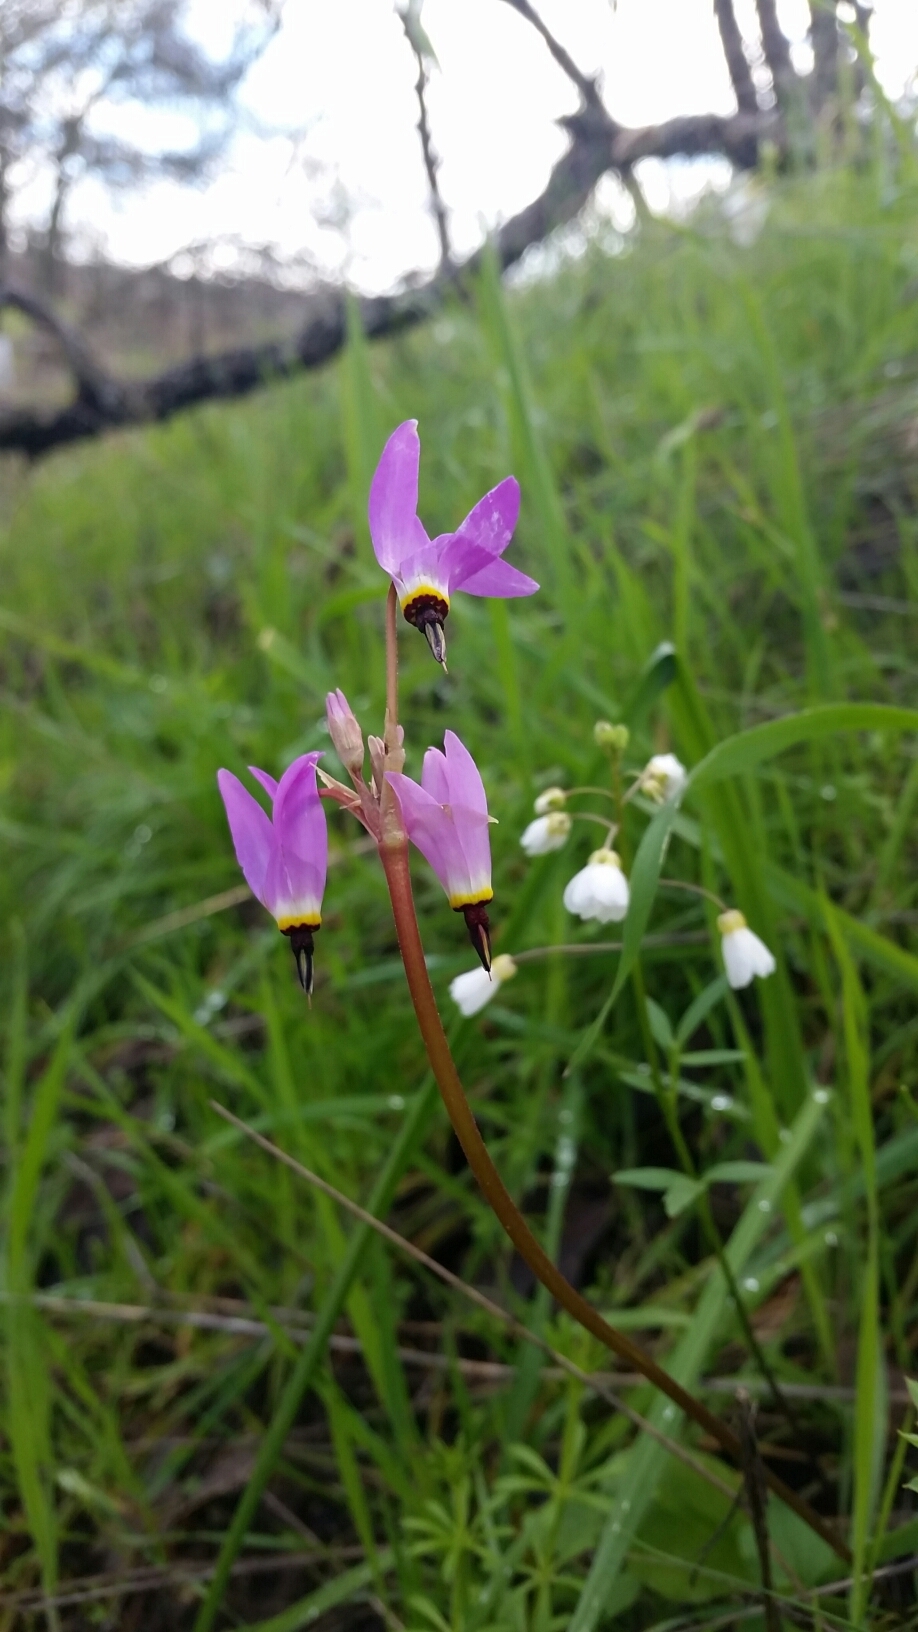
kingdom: Plantae
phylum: Tracheophyta
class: Magnoliopsida
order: Ericales
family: Primulaceae
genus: Dodecatheon
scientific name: Dodecatheon hendersonii
